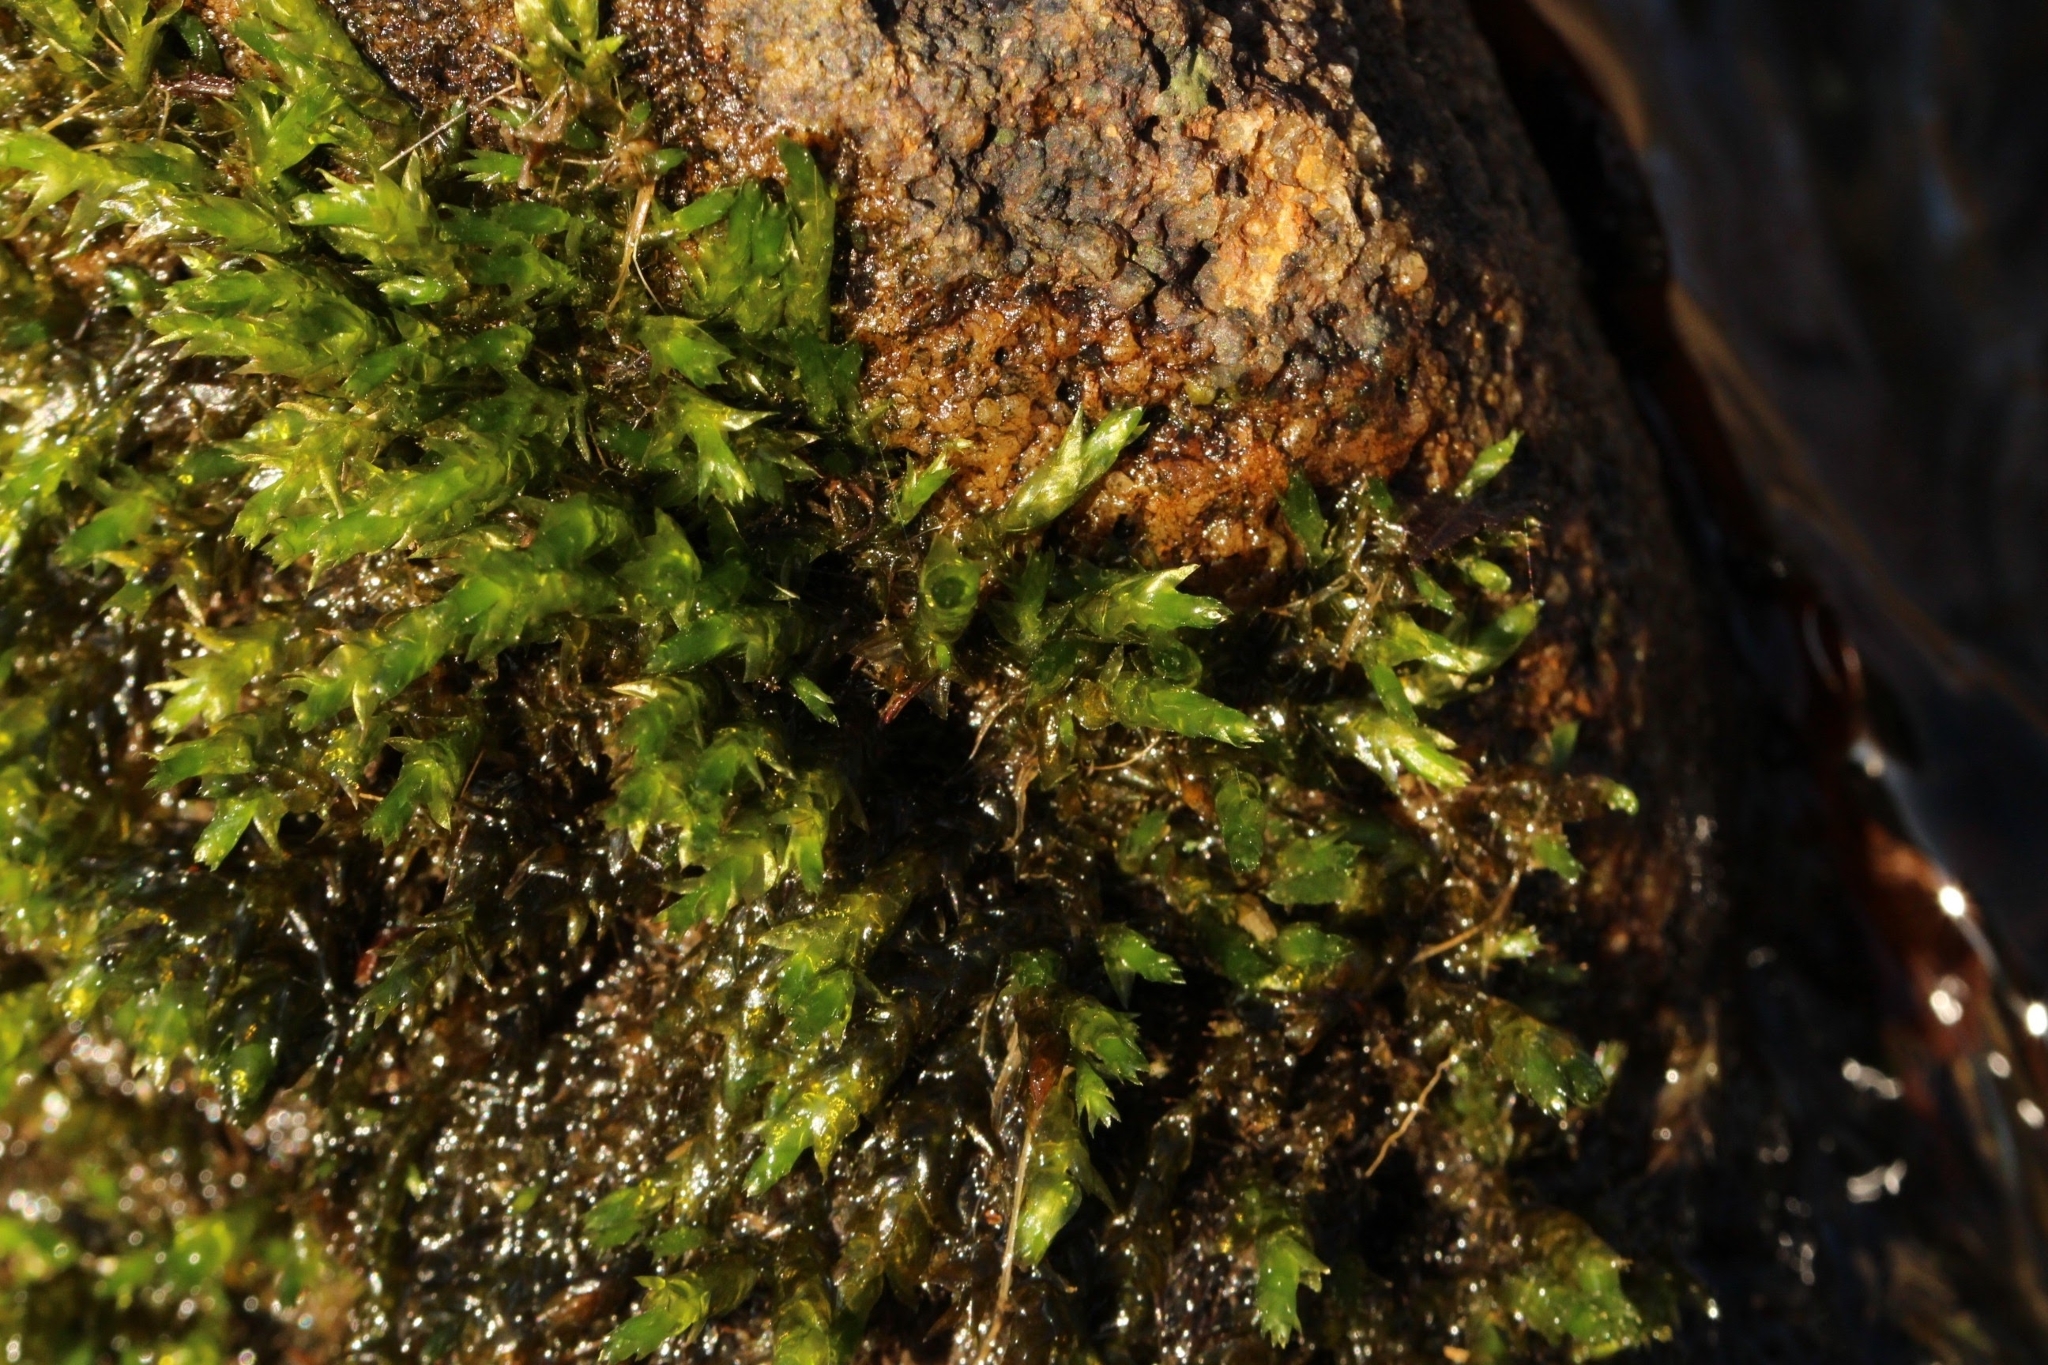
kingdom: Plantae
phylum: Bryophyta
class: Bryopsida
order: Hypnales
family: Brachytheciaceae
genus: Rhynchostegium
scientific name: Rhynchostegium riparioides
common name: Platyhypnidium moss
